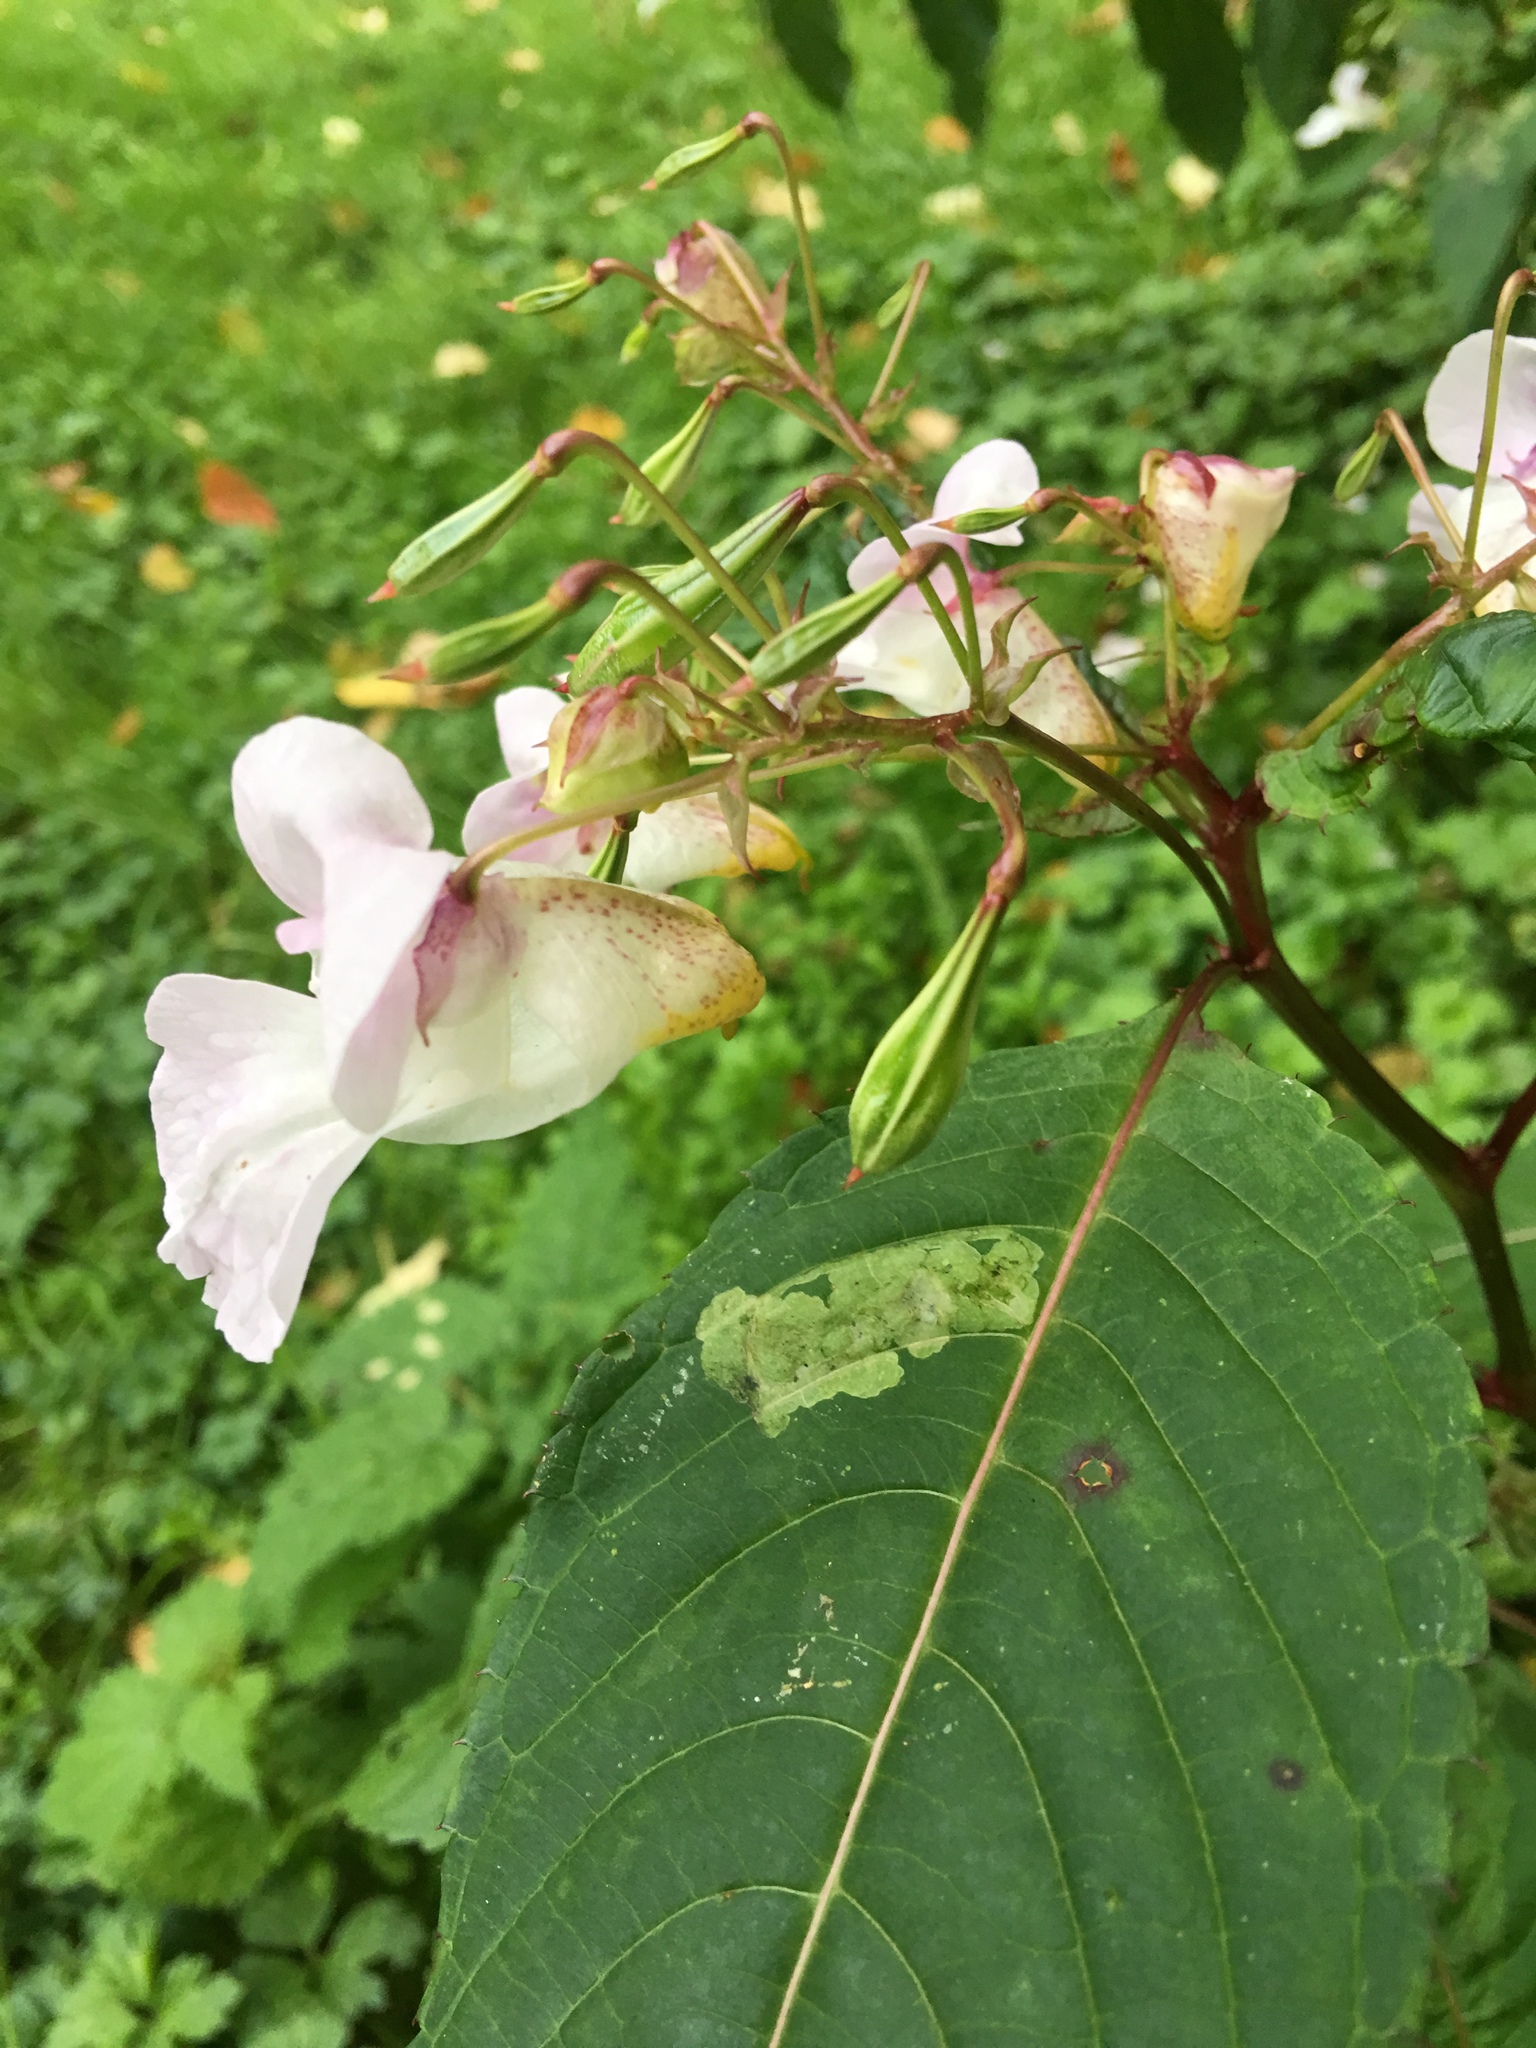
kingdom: Plantae
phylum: Tracheophyta
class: Magnoliopsida
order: Ericales
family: Balsaminaceae
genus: Impatiens
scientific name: Impatiens glandulifera
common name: Himalayan balsam
